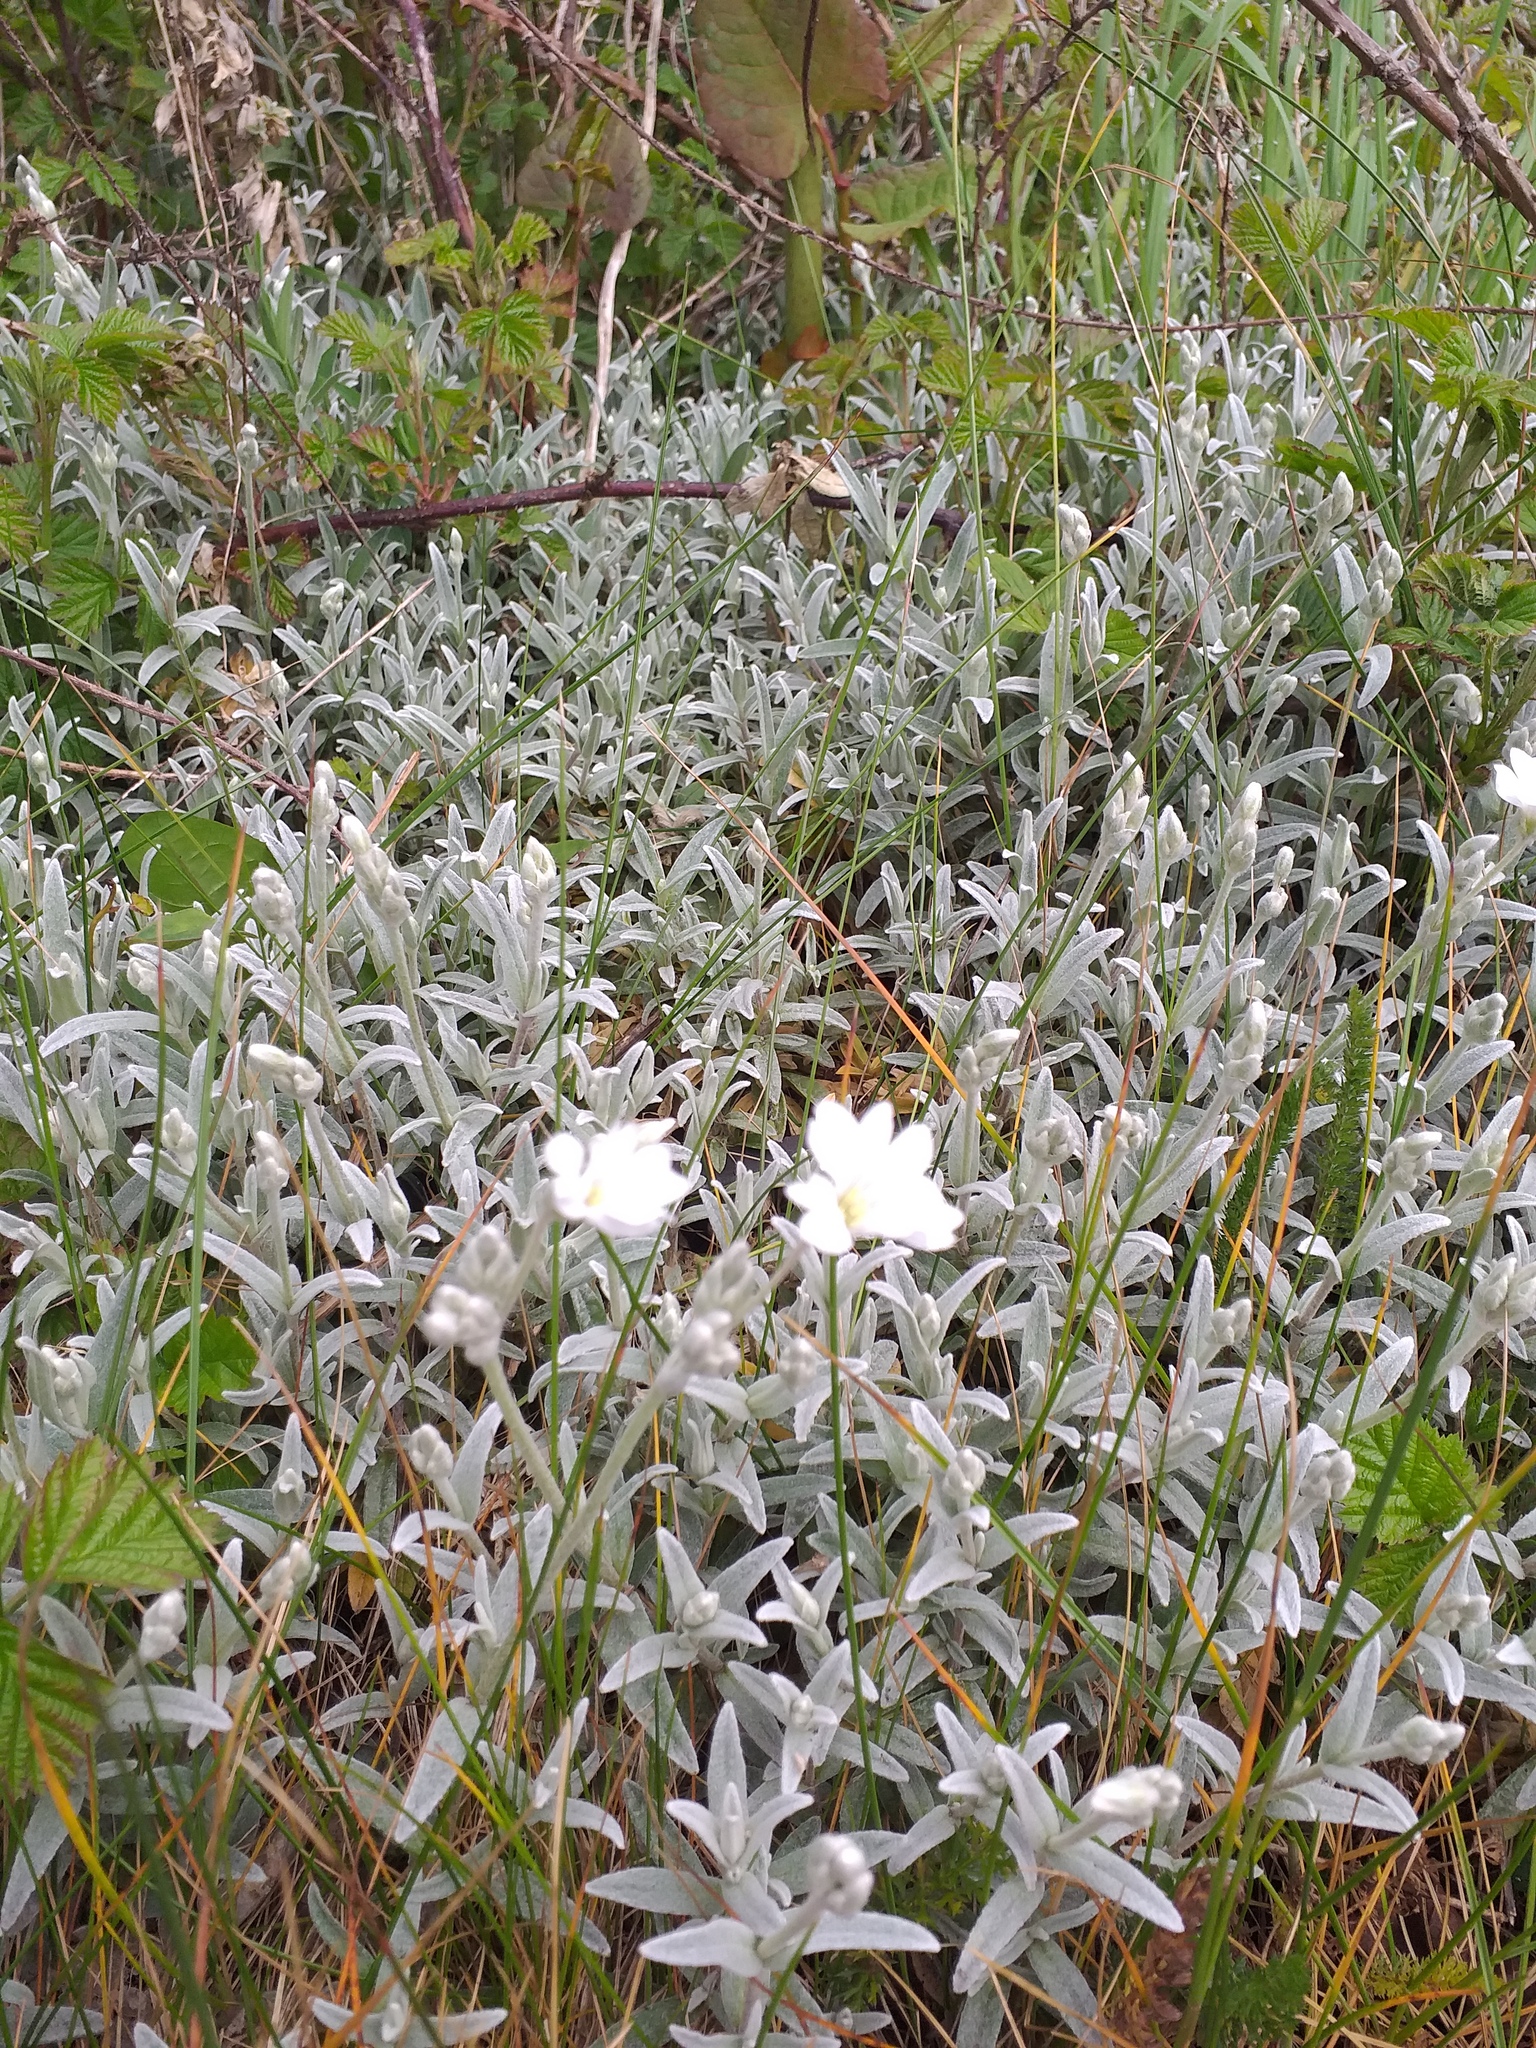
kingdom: Plantae
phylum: Tracheophyta
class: Magnoliopsida
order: Caryophyllales
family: Caryophyllaceae
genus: Cerastium
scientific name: Cerastium tomentosum
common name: Snow-in-summer
